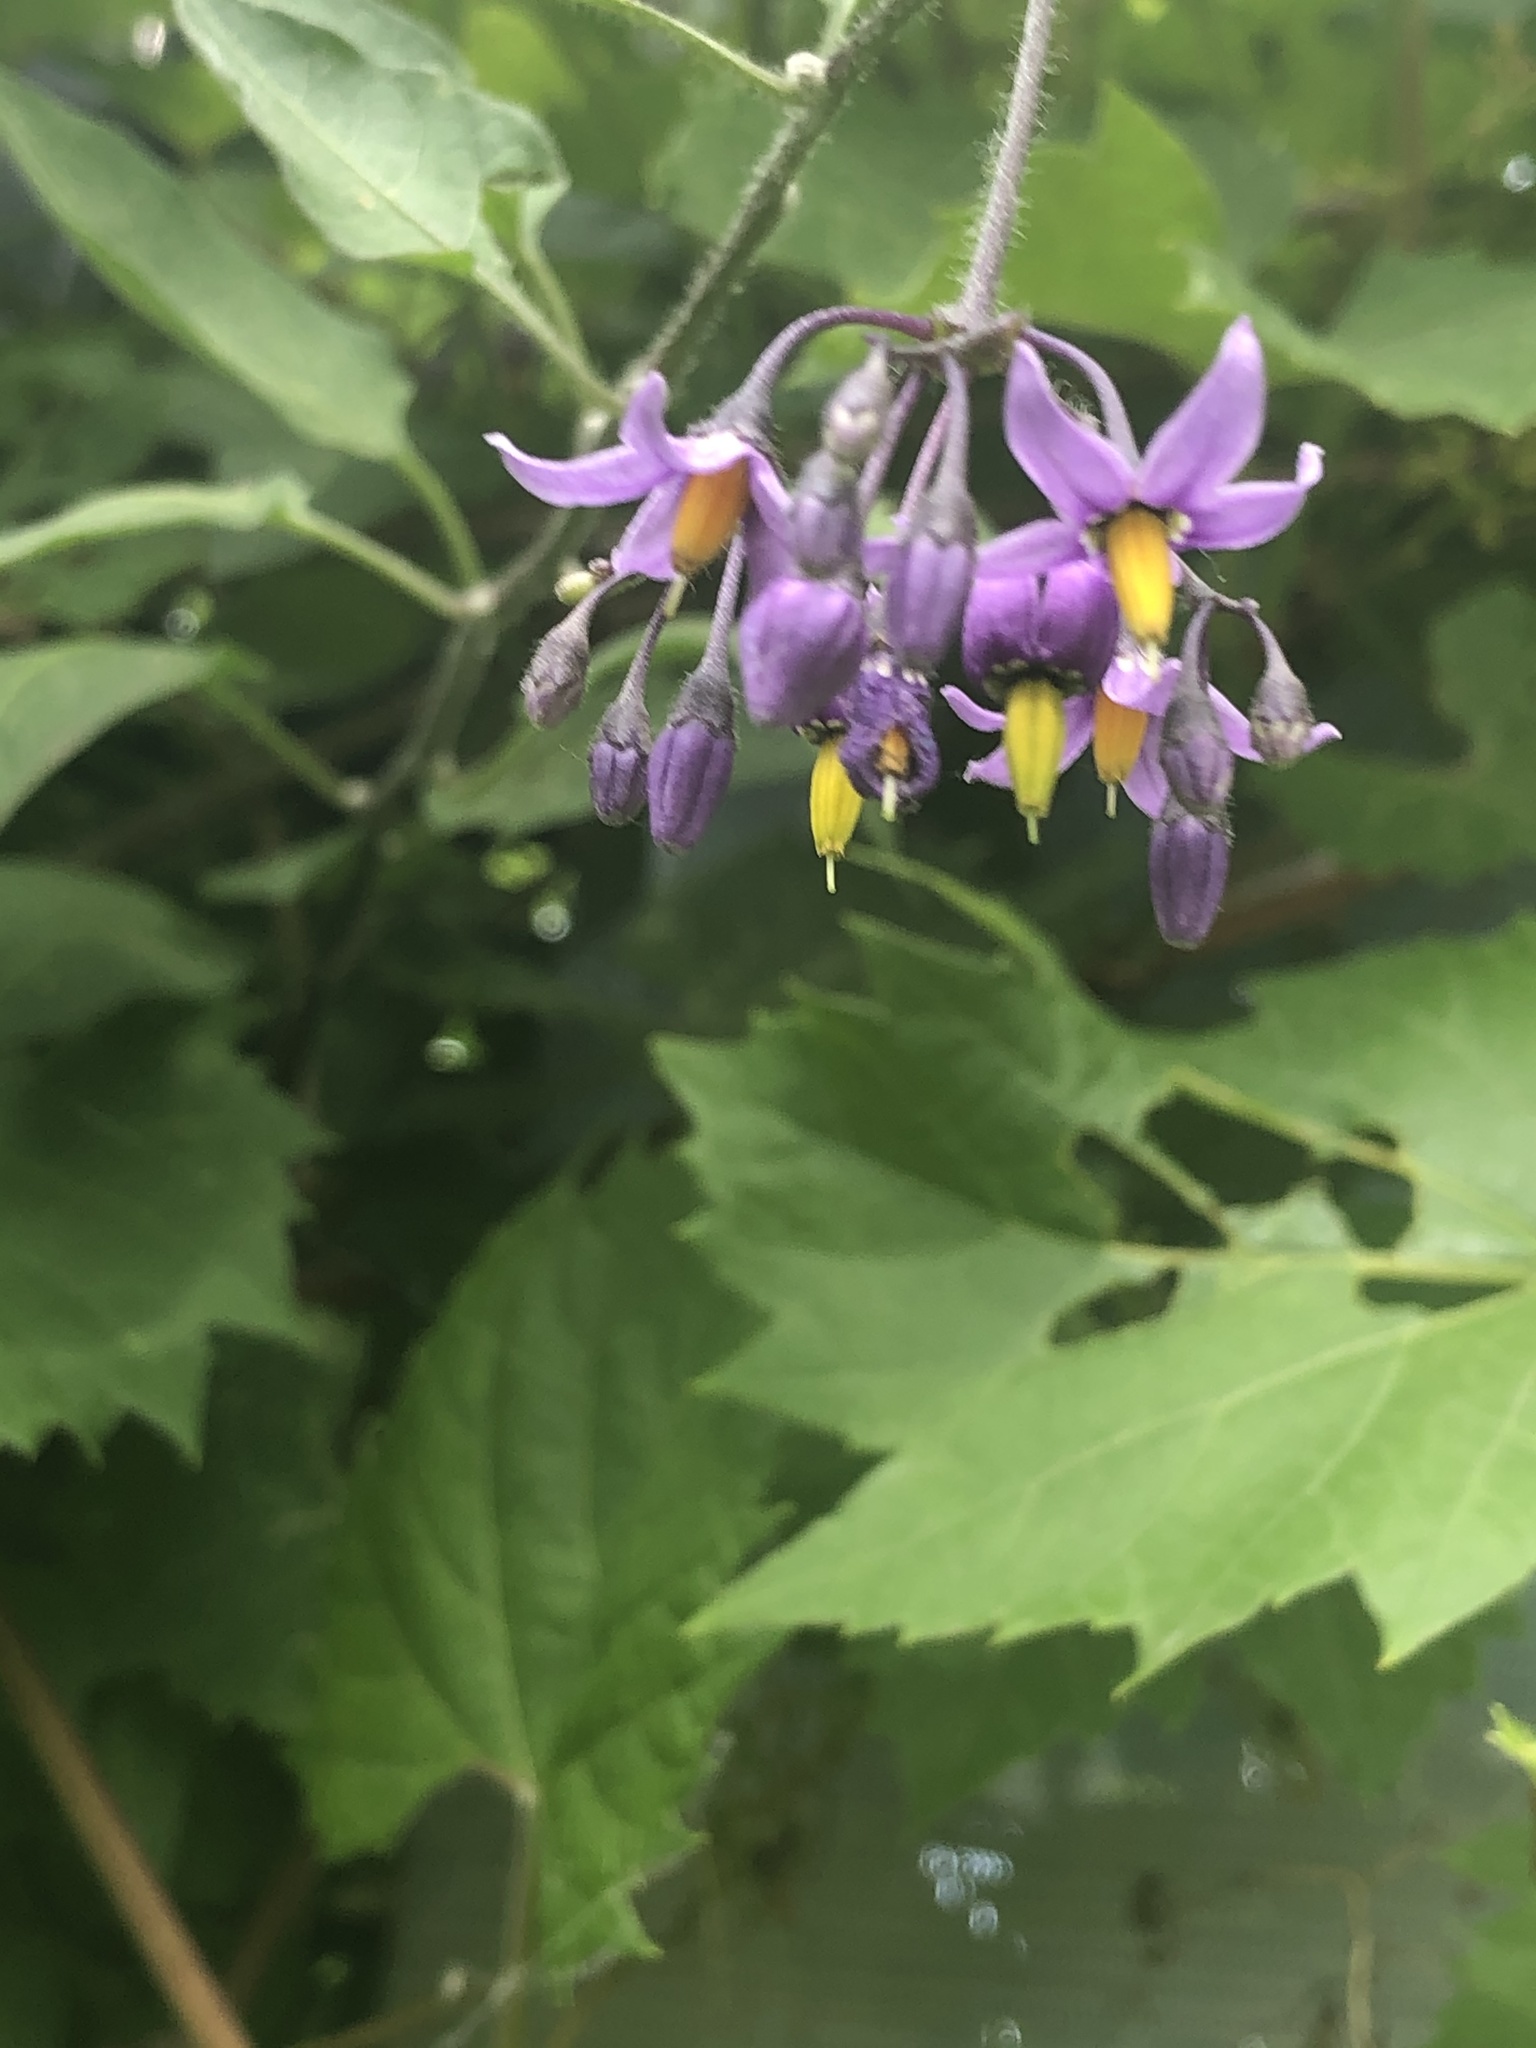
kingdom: Plantae
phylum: Tracheophyta
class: Magnoliopsida
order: Solanales
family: Solanaceae
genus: Solanum
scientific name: Solanum dulcamara
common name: Climbing nightshade
